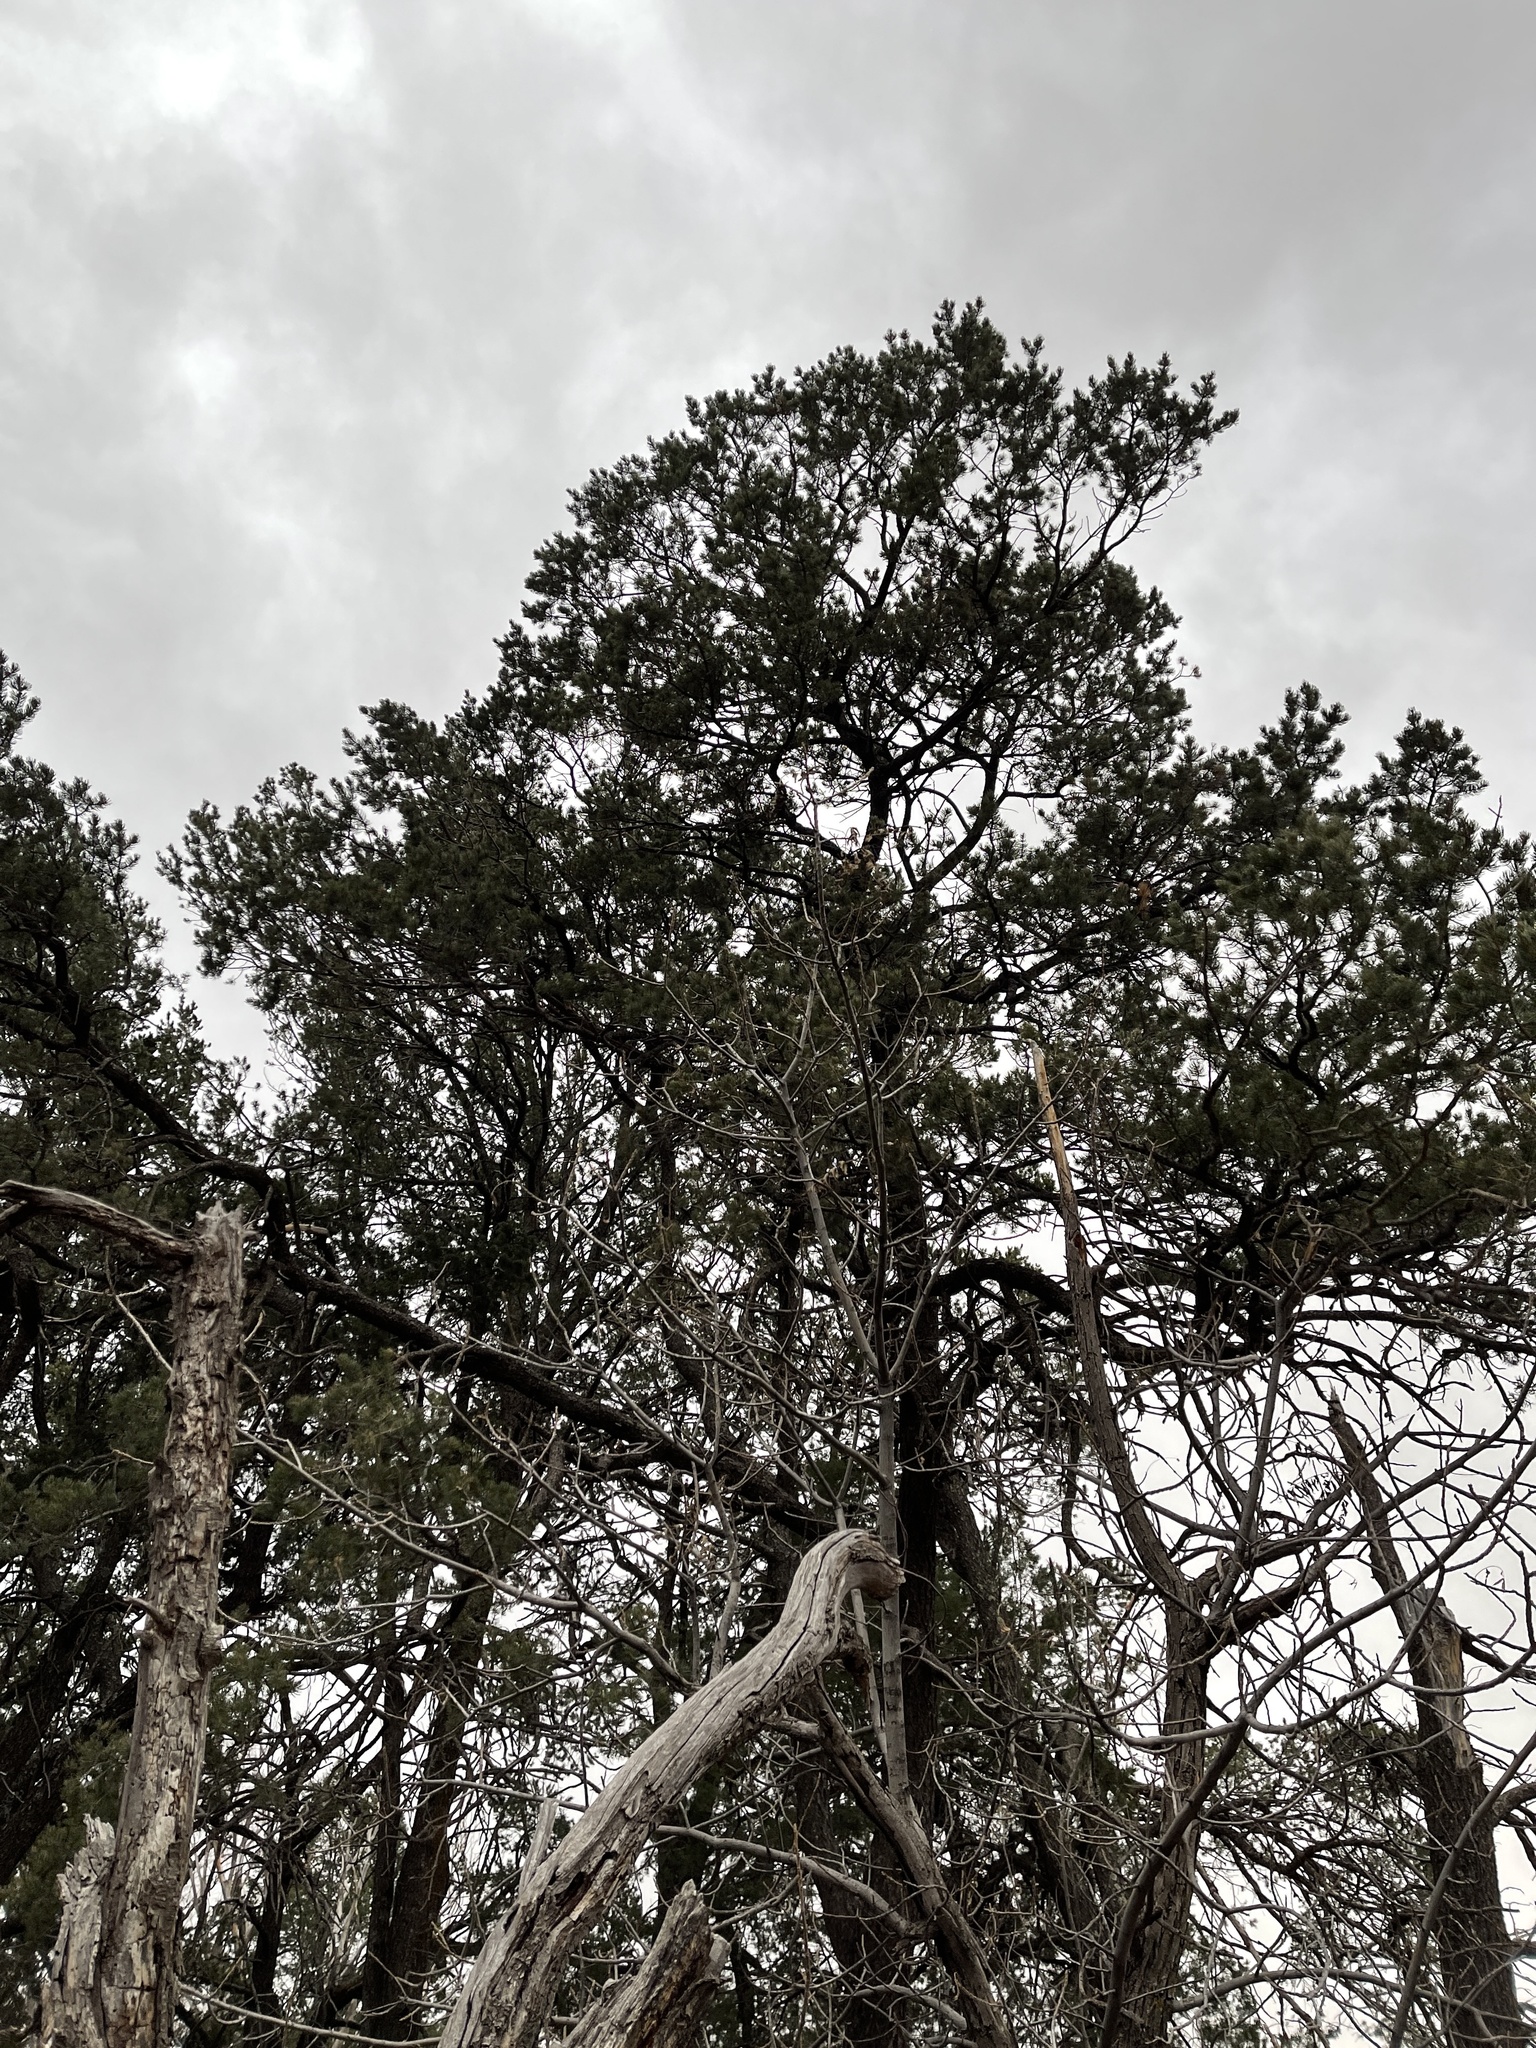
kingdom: Plantae
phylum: Tracheophyta
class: Pinopsida
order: Pinales
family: Pinaceae
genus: Pinus
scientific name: Pinus edulis
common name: Colorado pinyon
